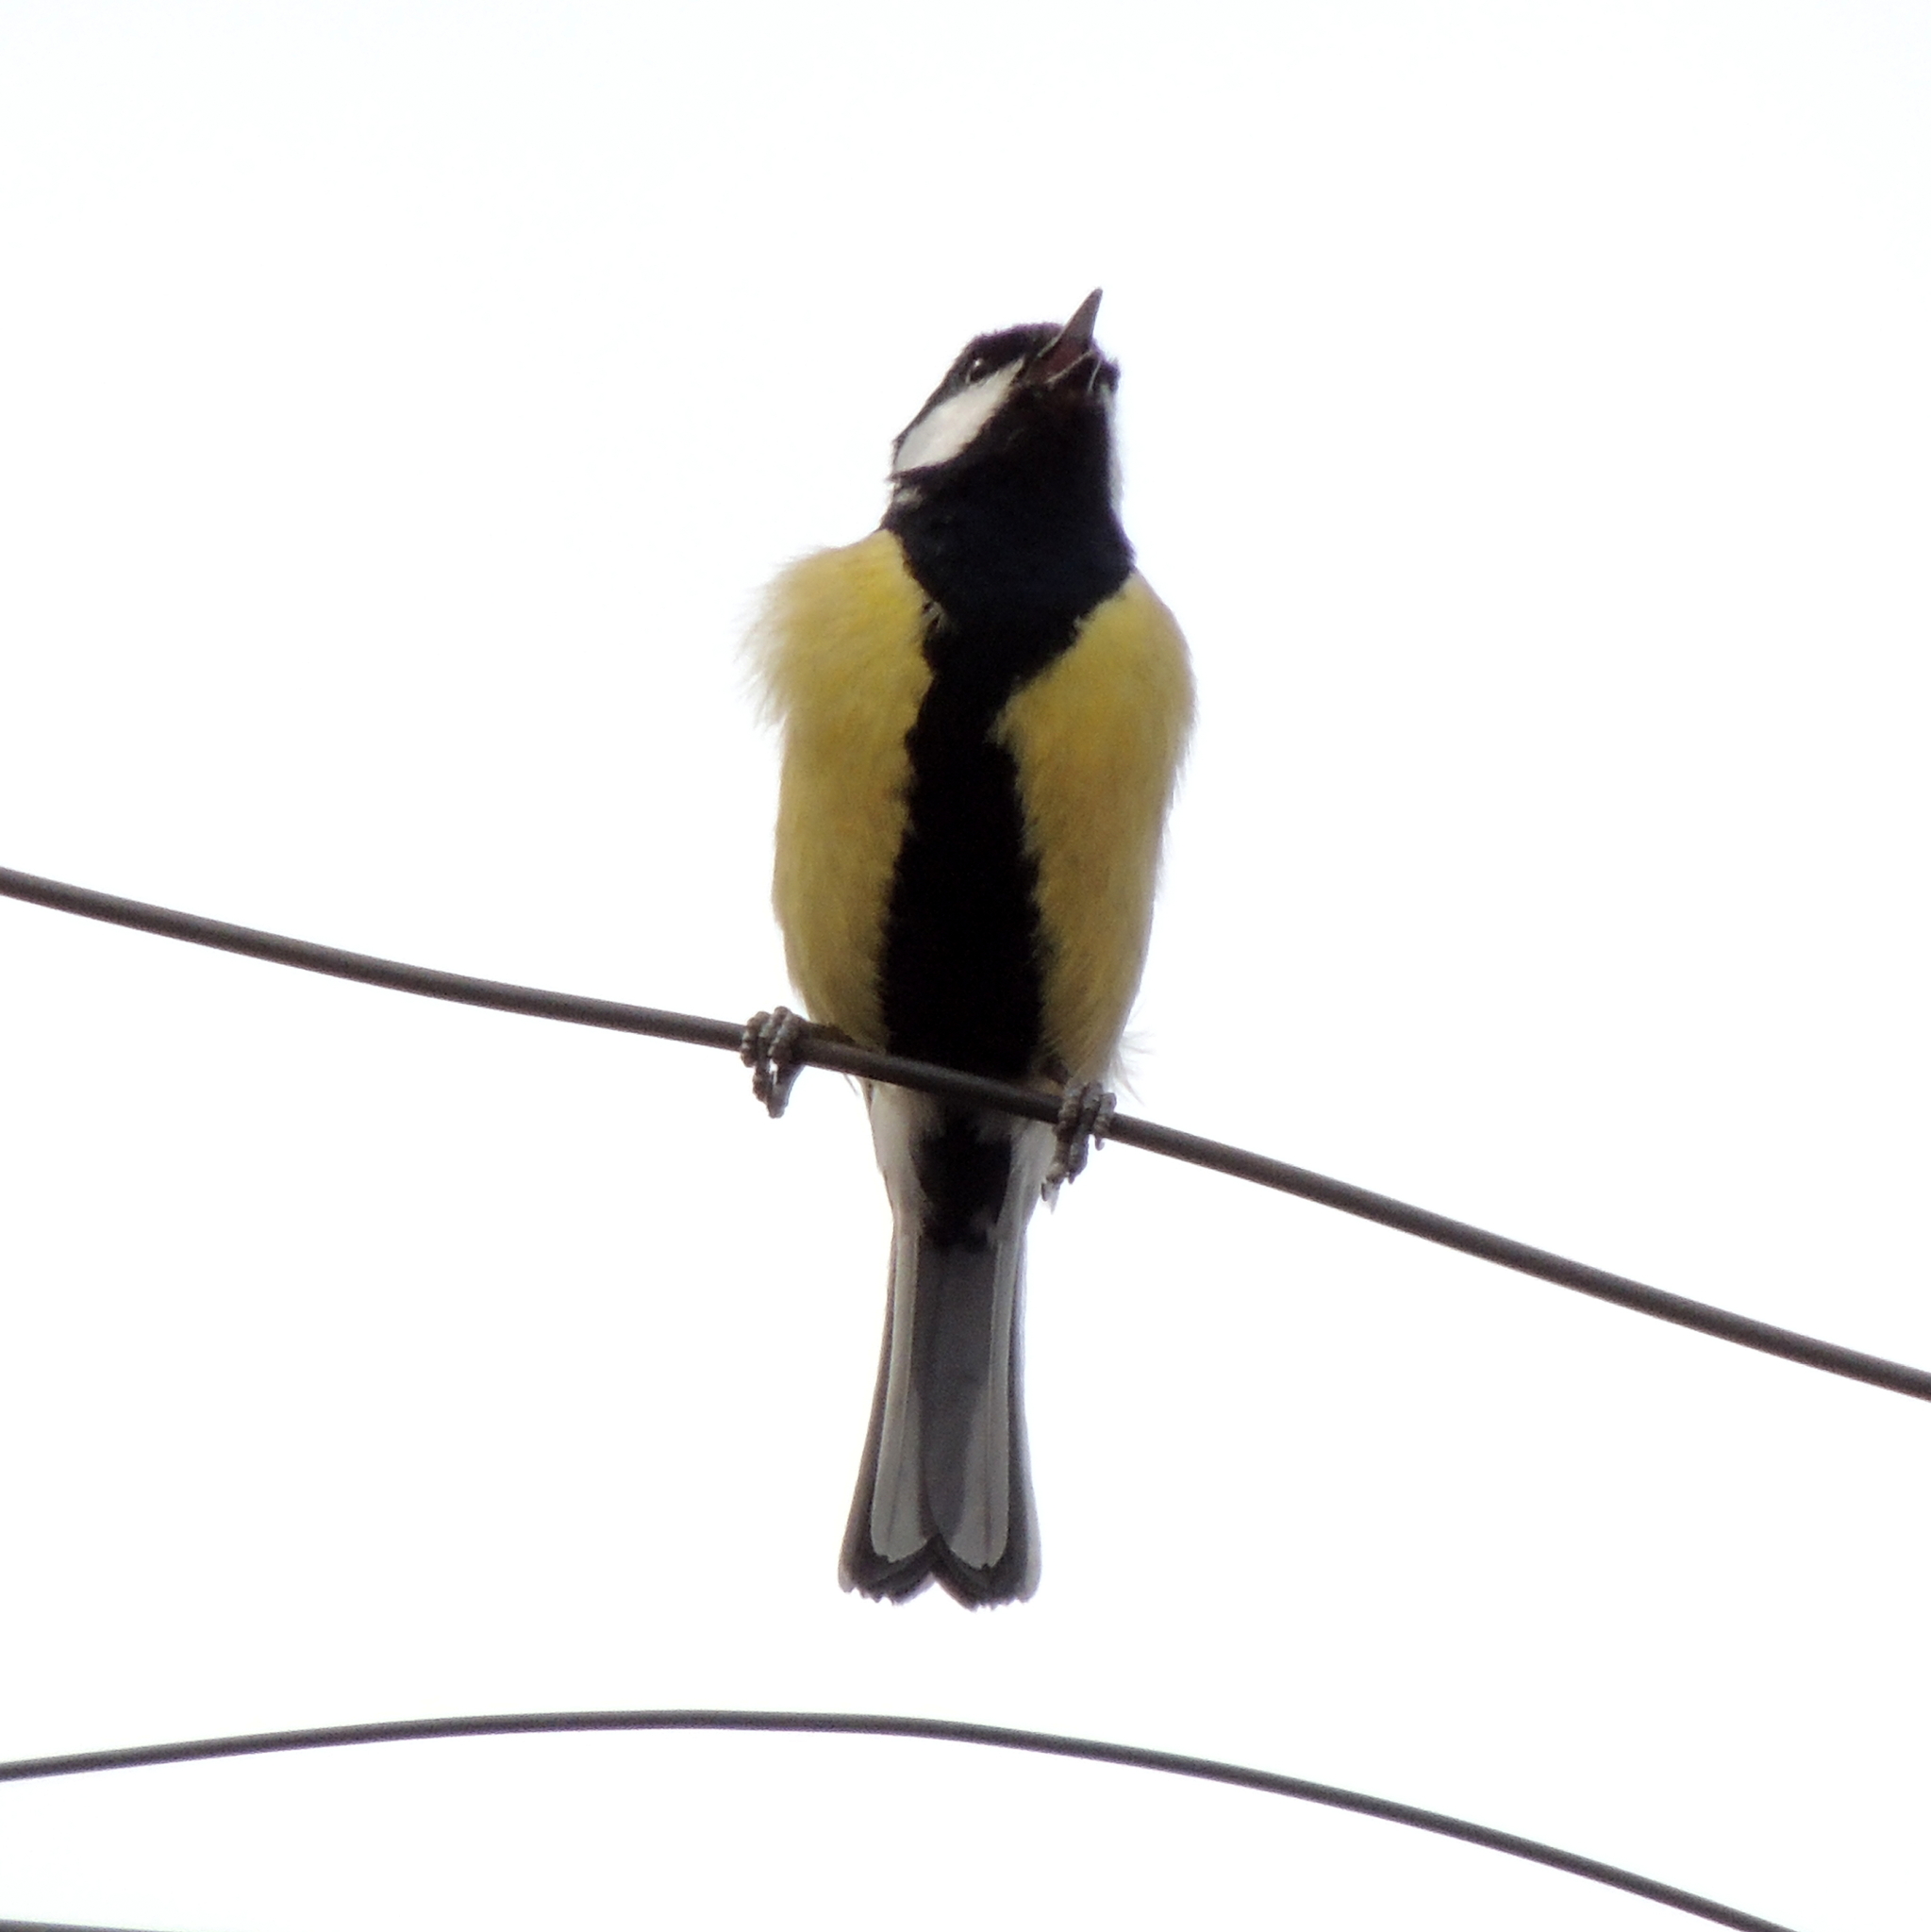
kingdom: Animalia
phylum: Chordata
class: Aves
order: Passeriformes
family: Paridae
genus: Parus
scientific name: Parus major
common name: Great tit
